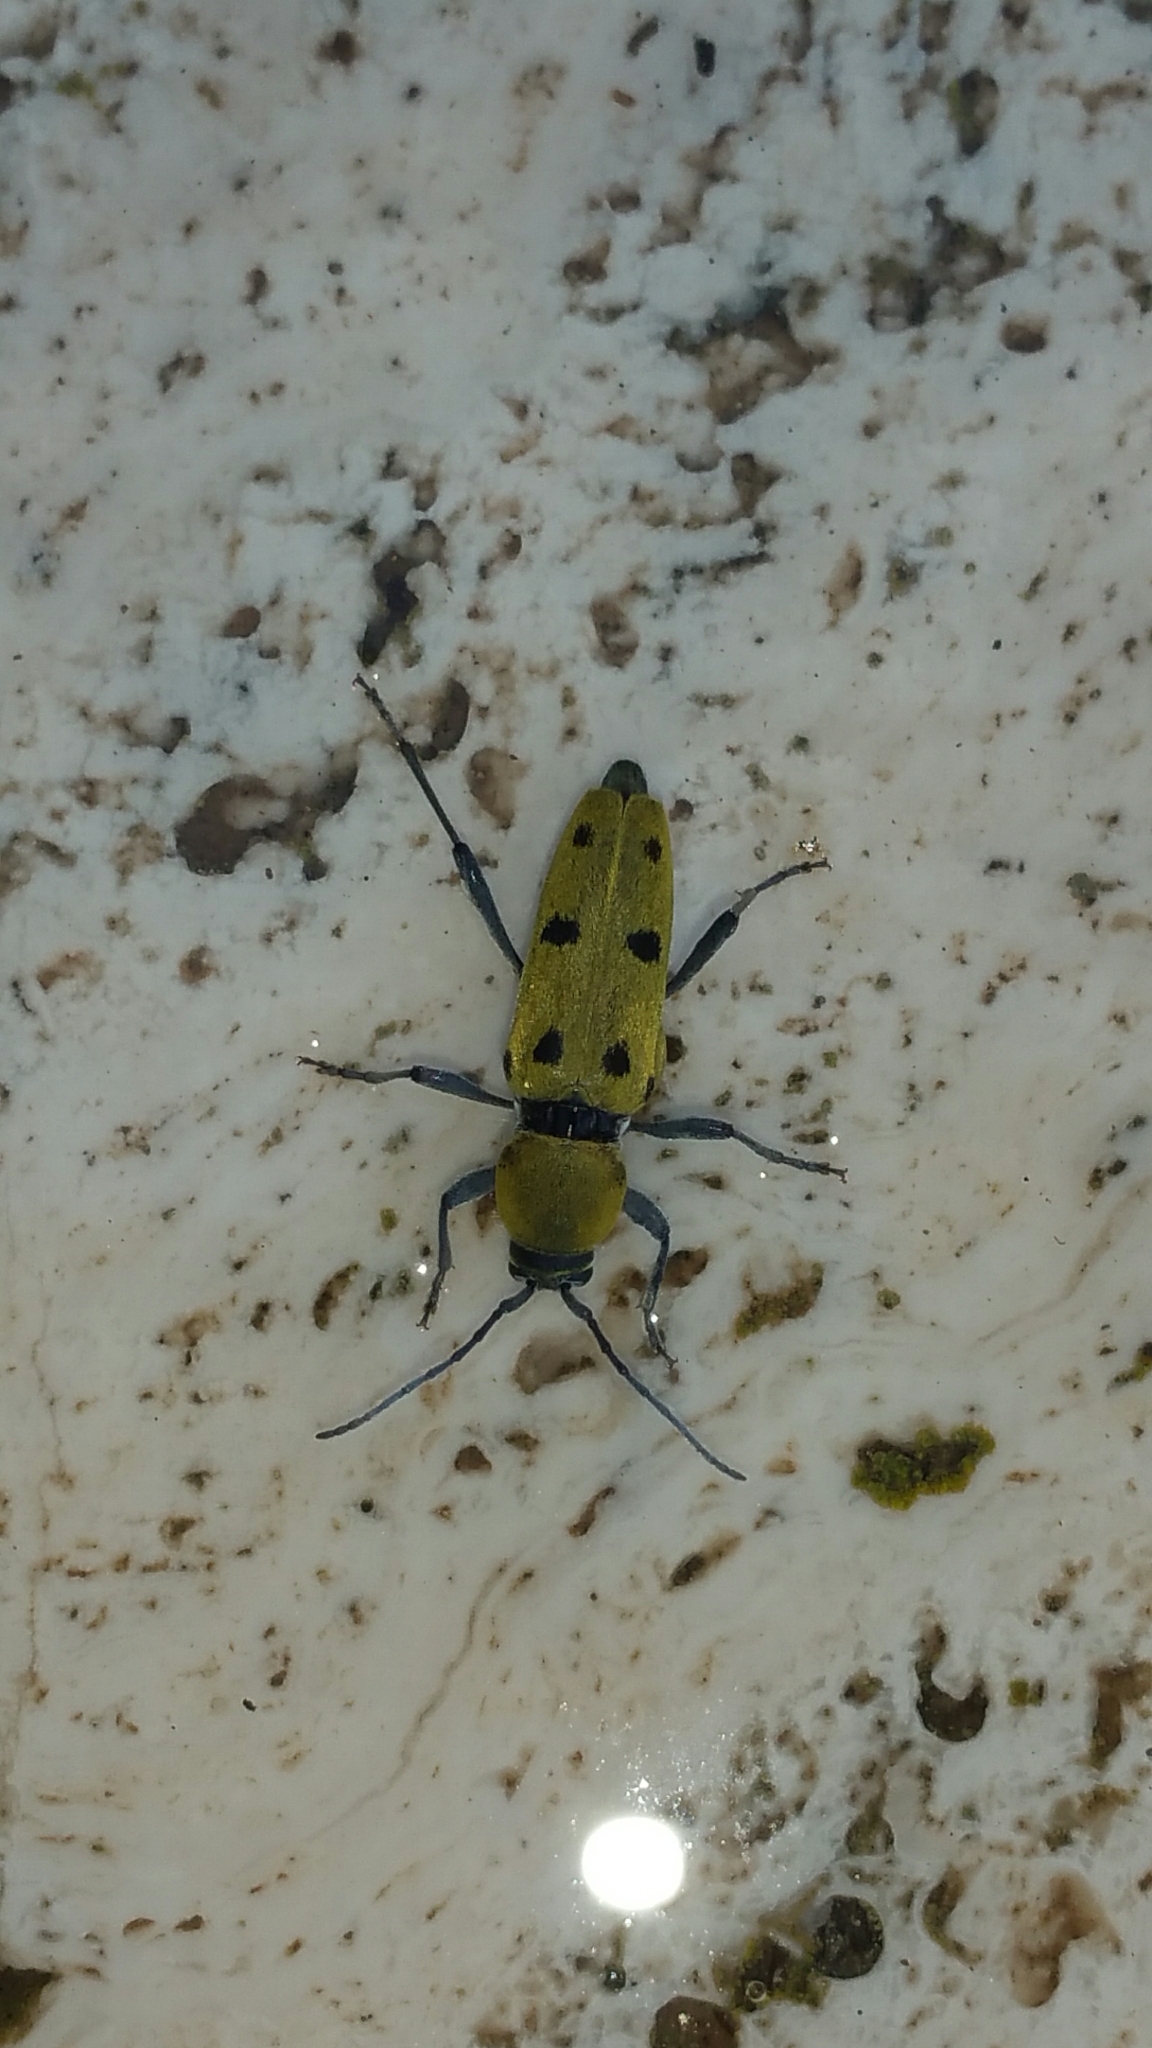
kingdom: Animalia
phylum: Arthropoda
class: Insecta
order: Coleoptera
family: Cerambycidae
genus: Chlorophorus
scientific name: Chlorophorus glabromaculatus
